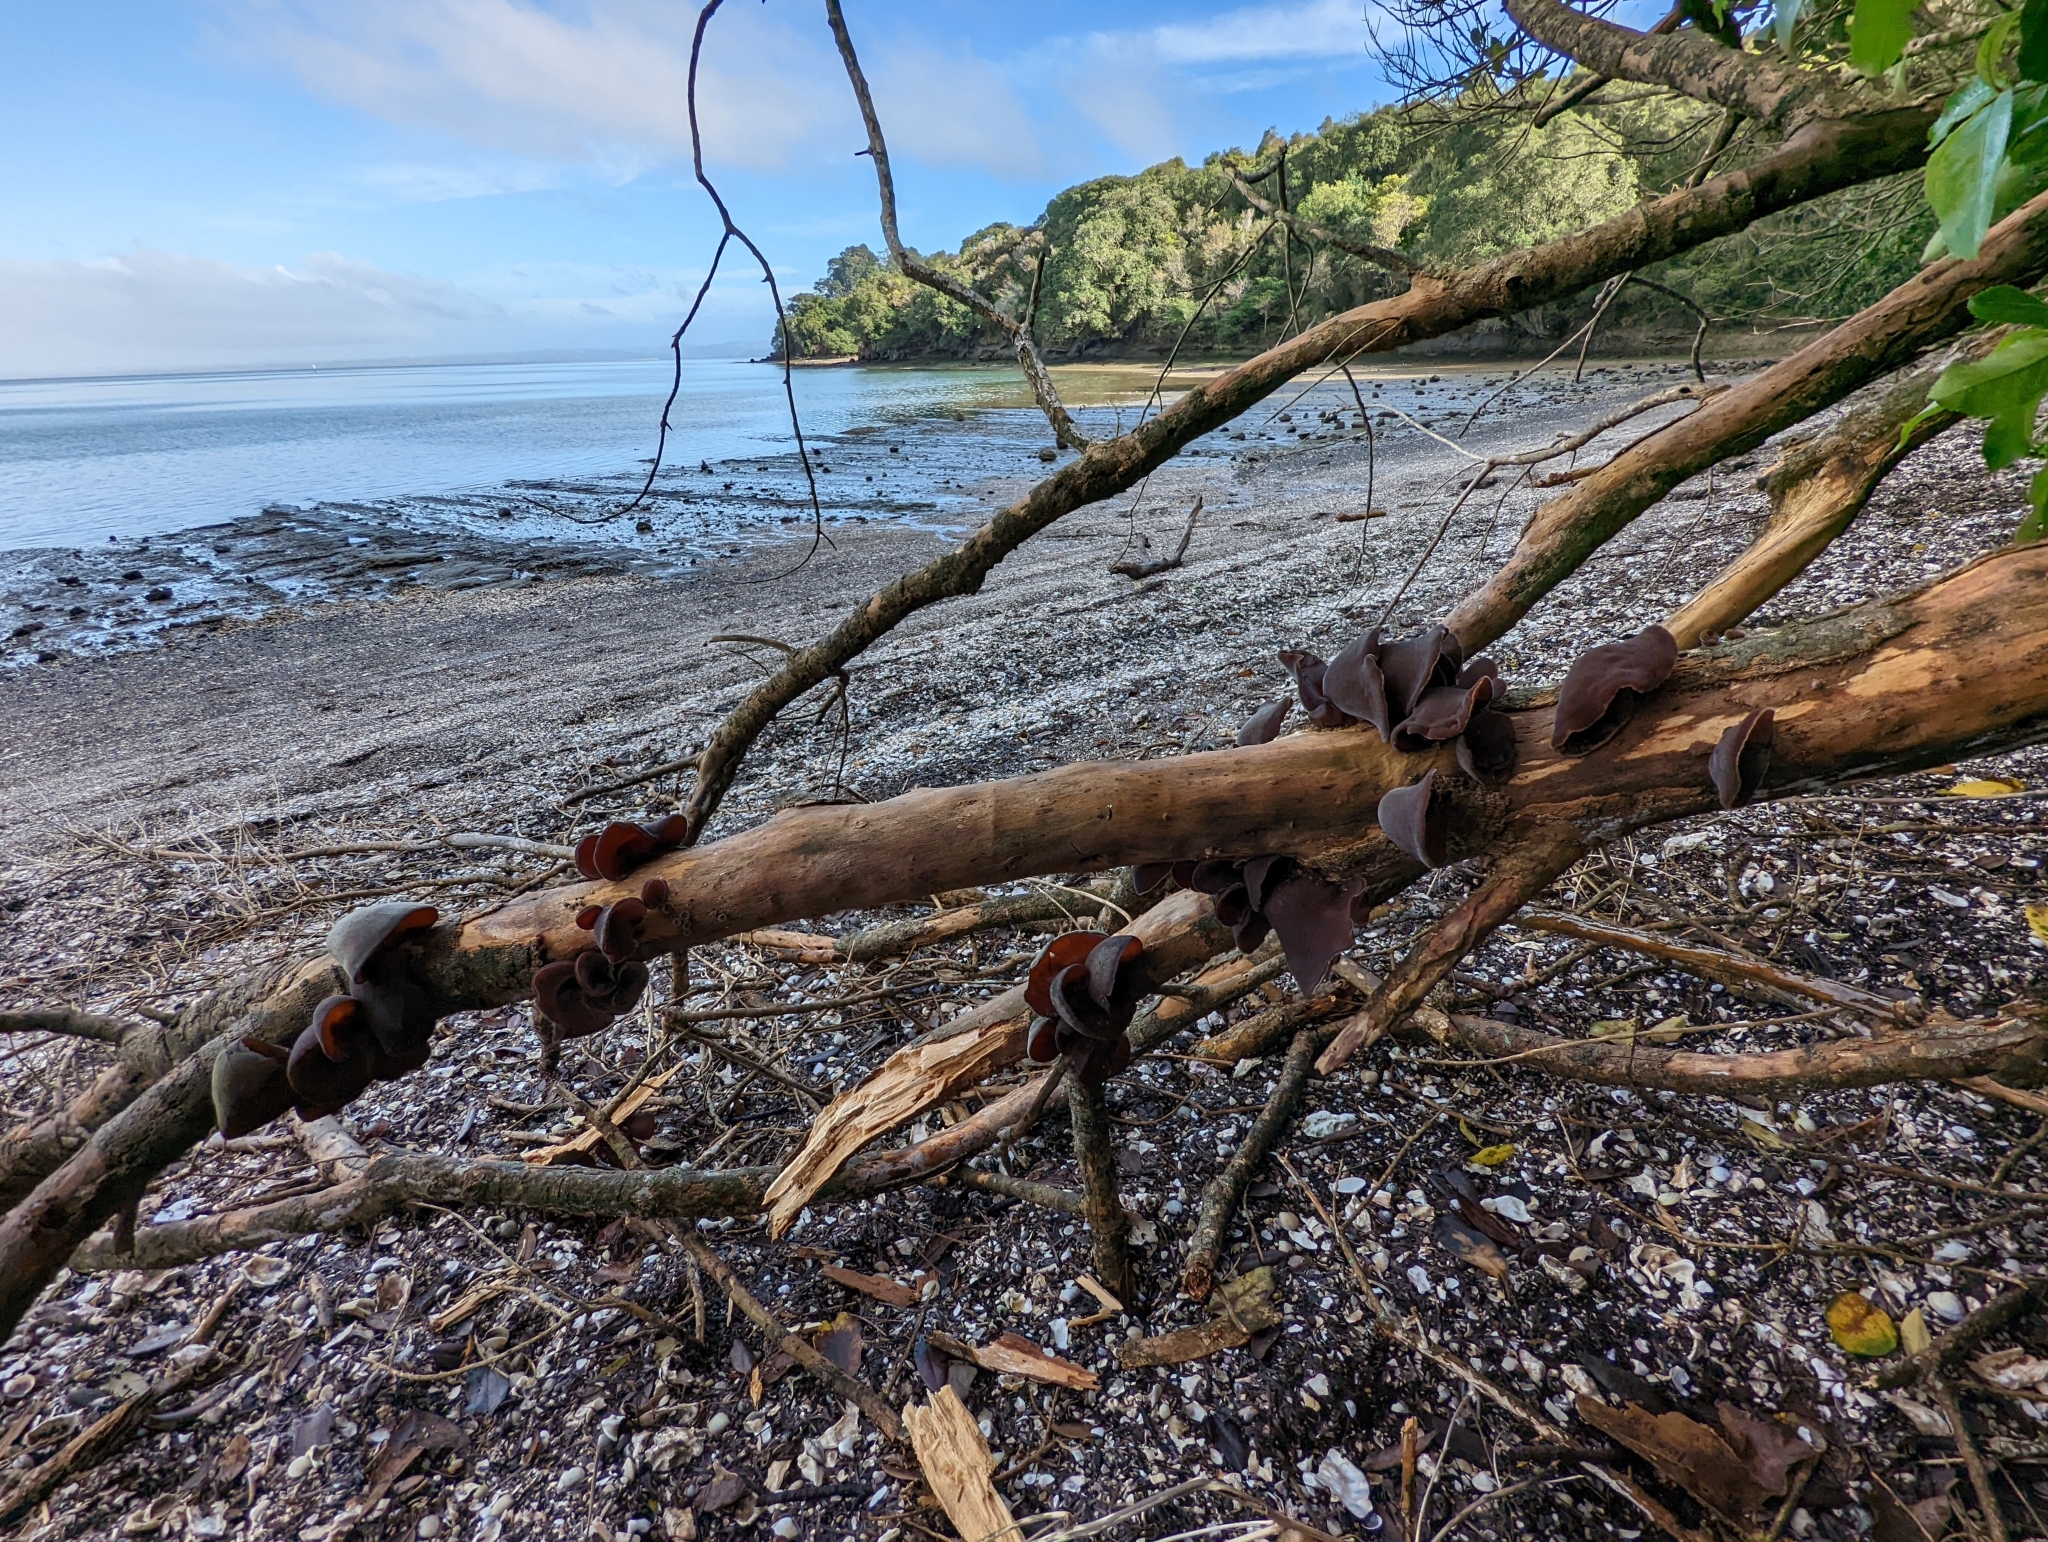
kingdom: Fungi
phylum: Basidiomycota
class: Agaricomycetes
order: Auriculariales
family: Auriculariaceae
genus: Auricularia
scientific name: Auricularia cornea
